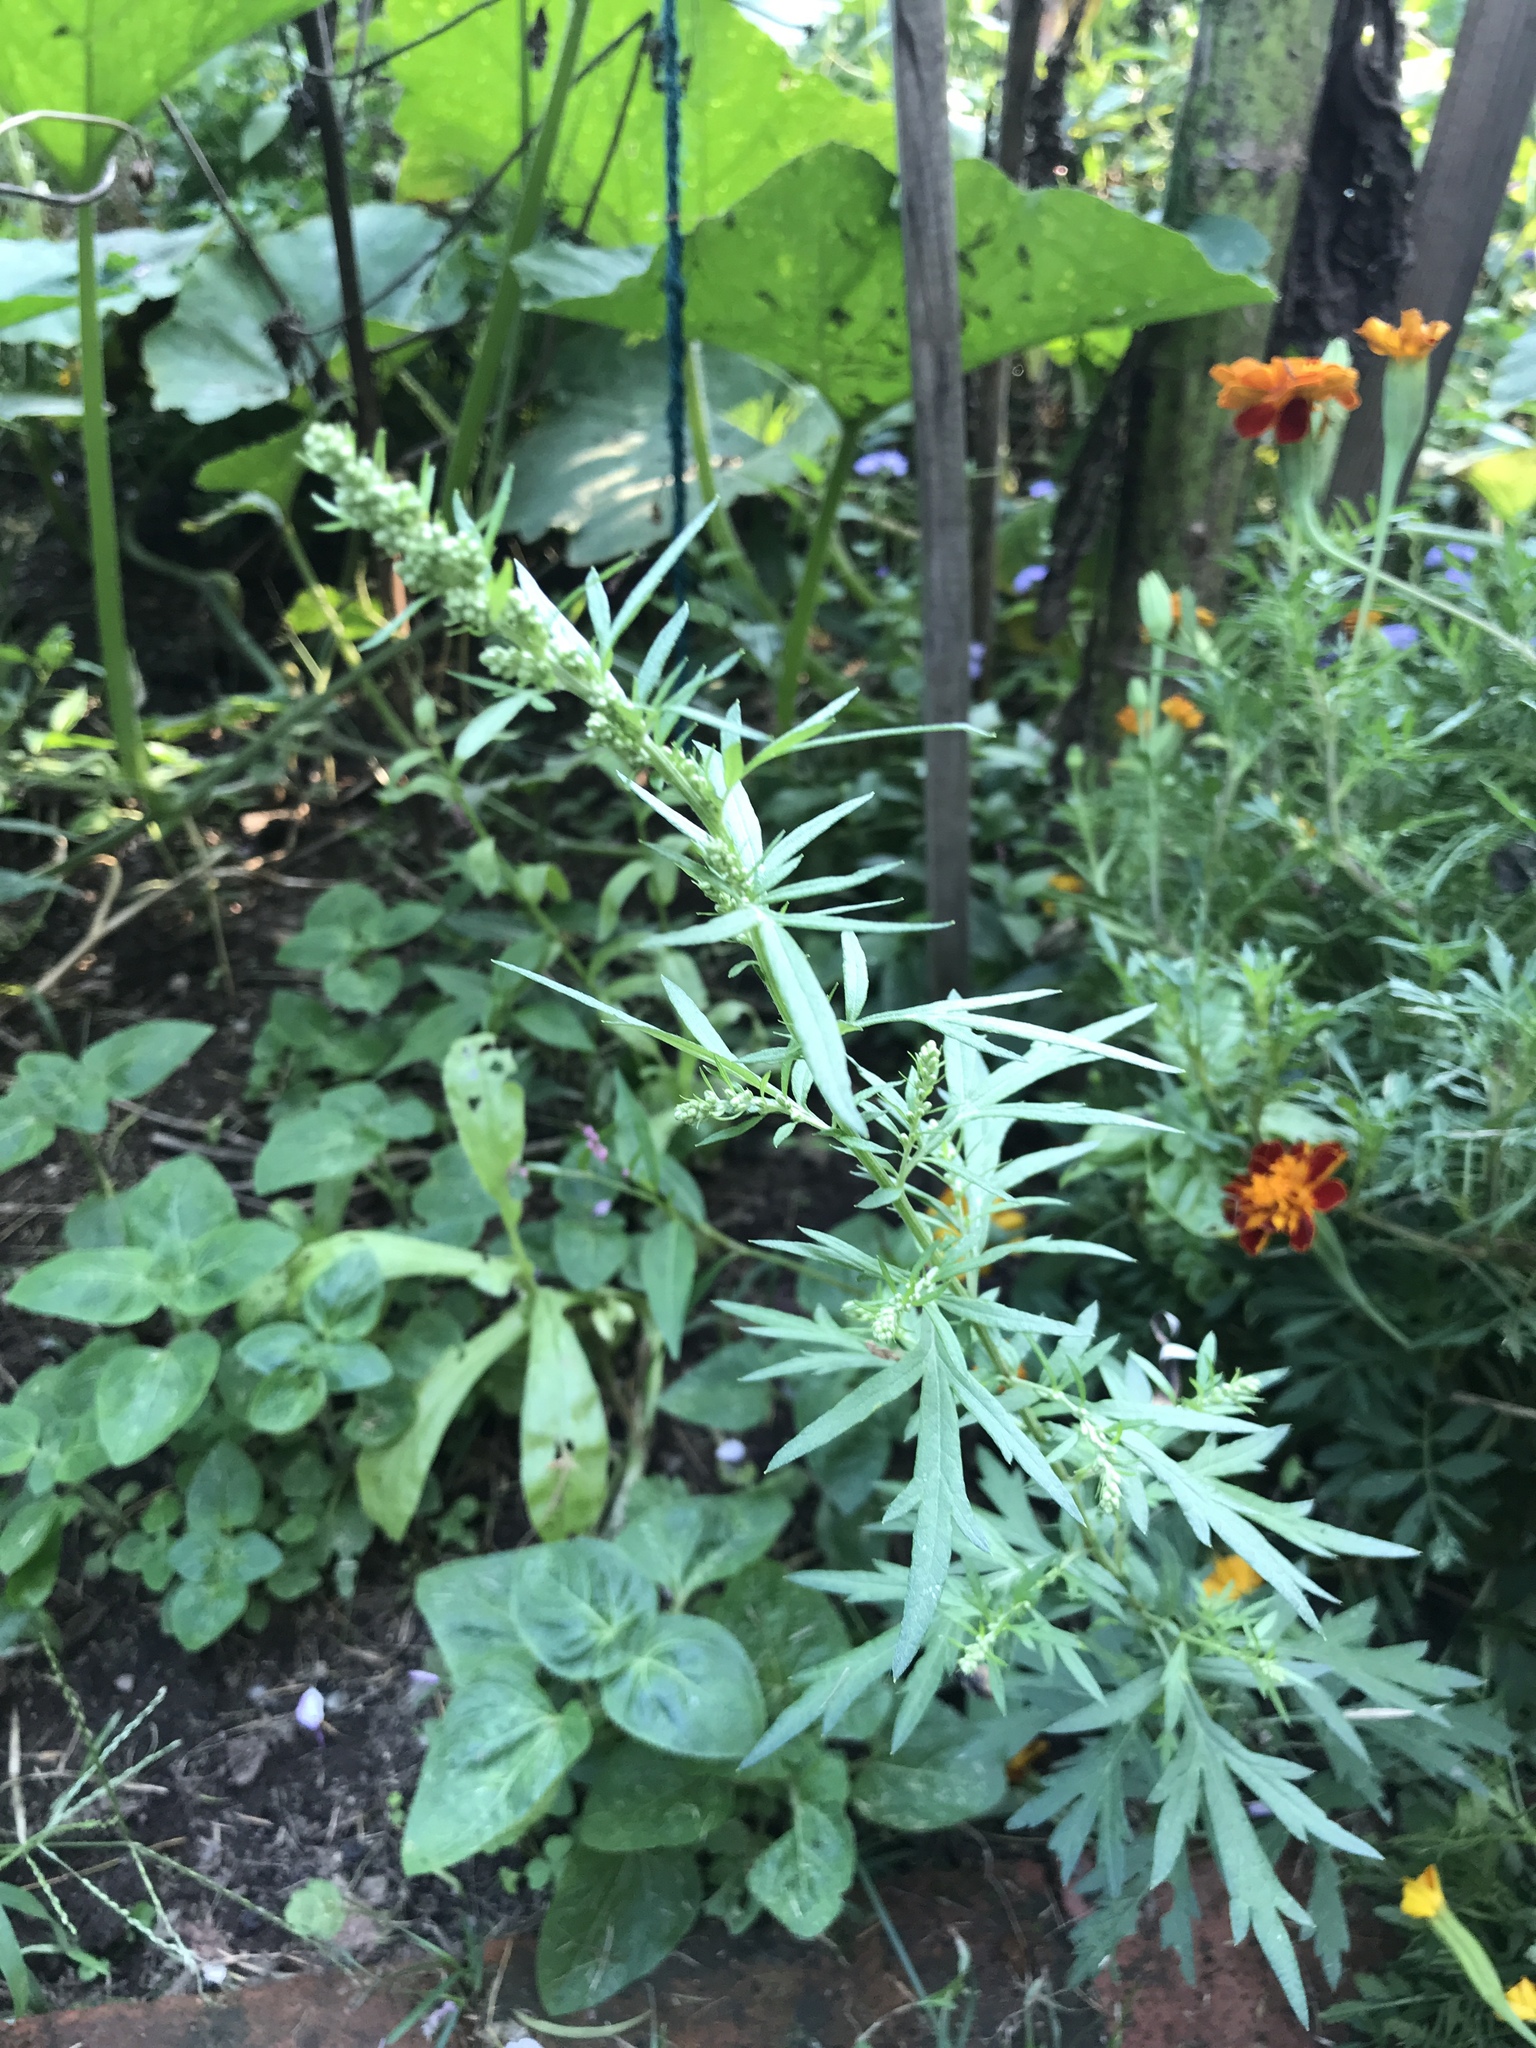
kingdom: Plantae
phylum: Tracheophyta
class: Magnoliopsida
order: Asterales
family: Asteraceae
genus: Artemisia
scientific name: Artemisia vulgaris
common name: Mugwort
